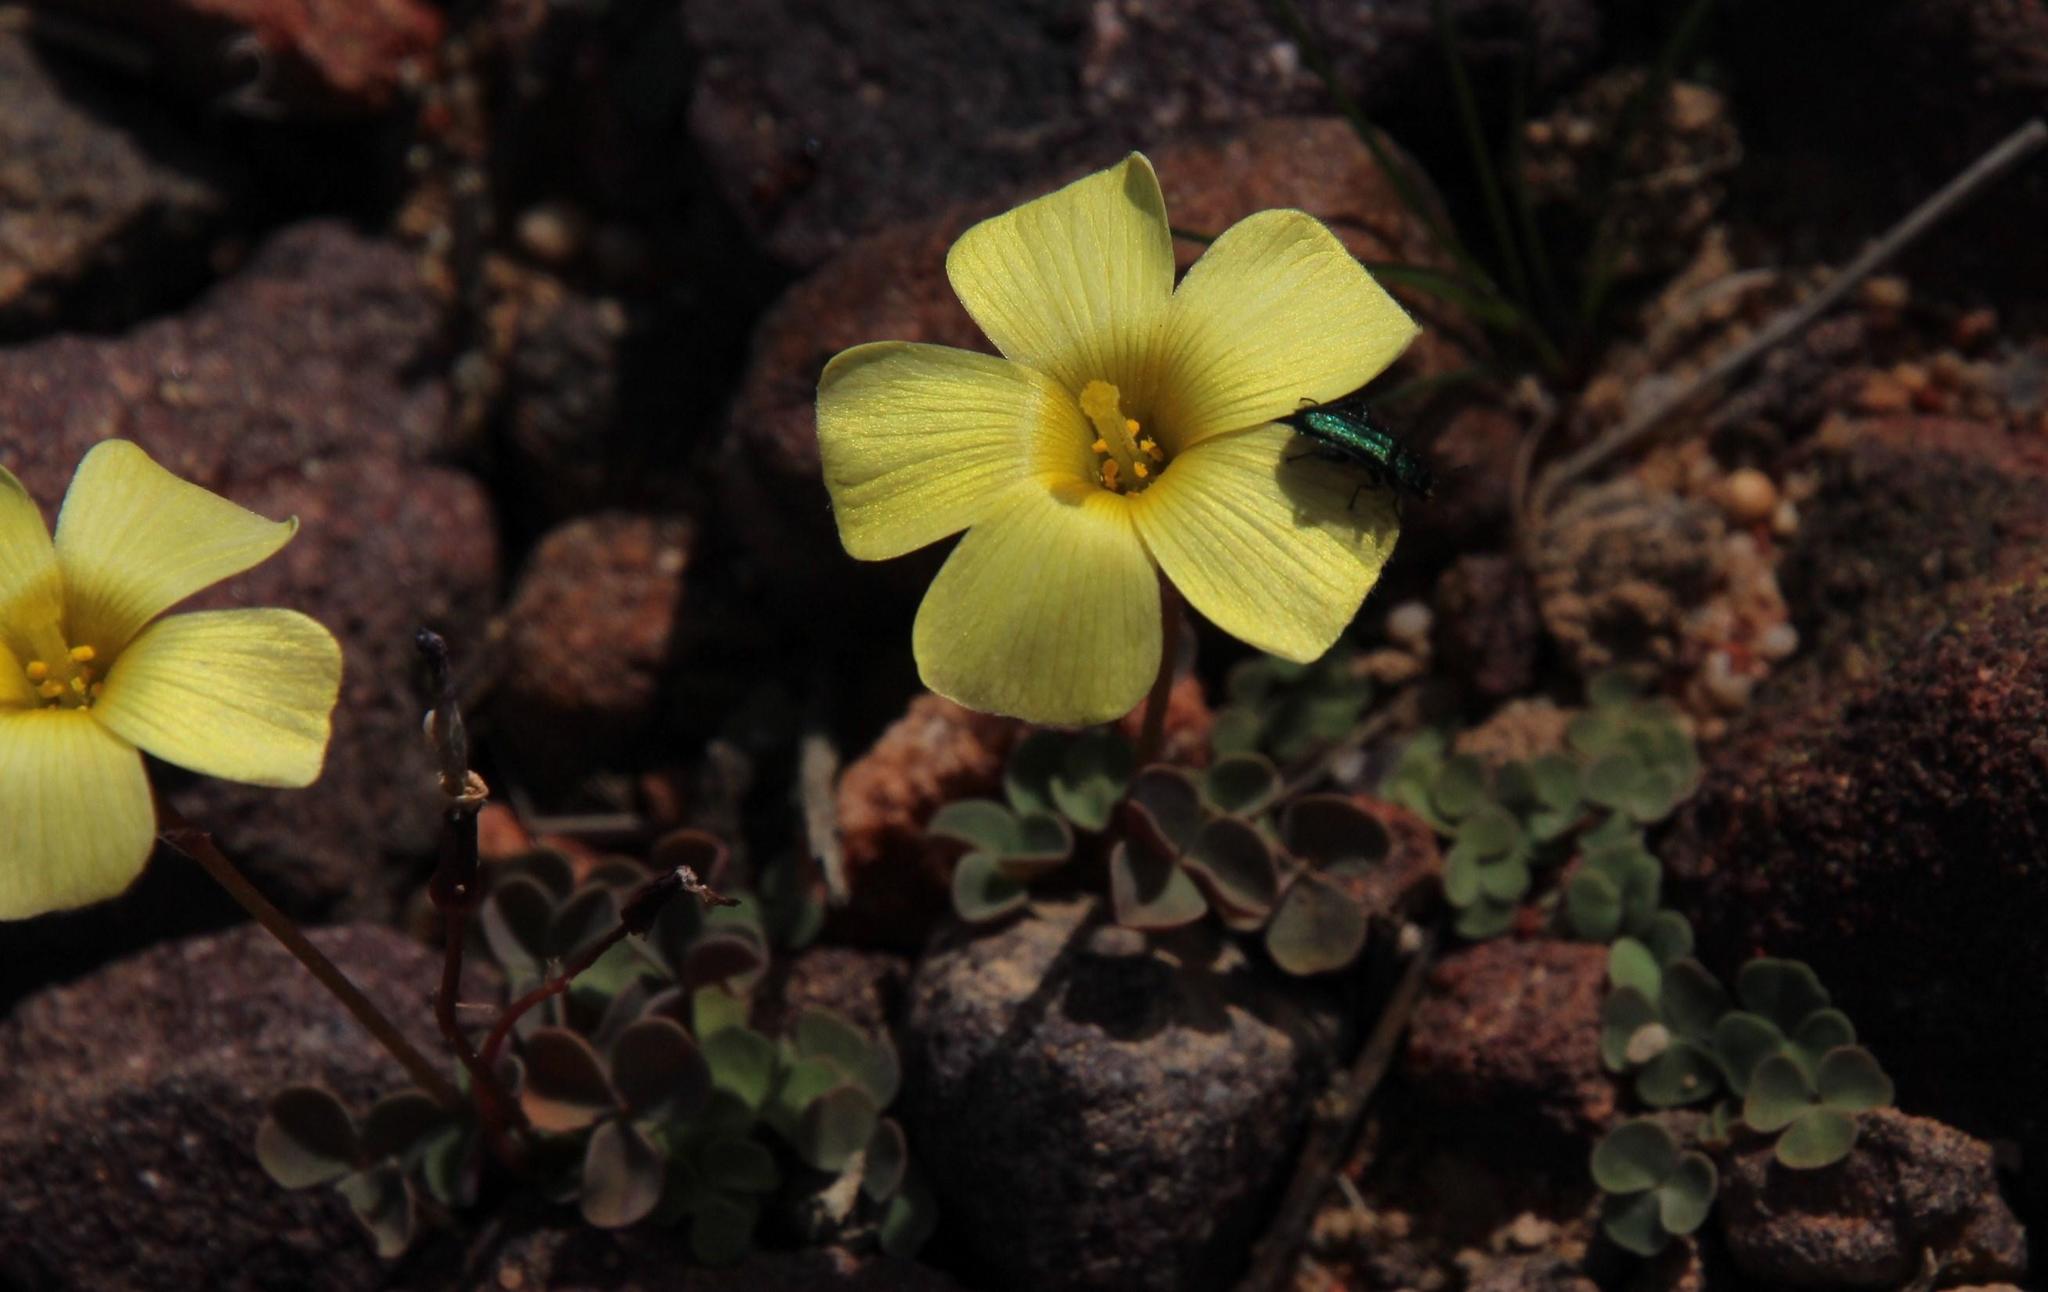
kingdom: Plantae
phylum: Tracheophyta
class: Magnoliopsida
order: Oxalidales
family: Oxalidaceae
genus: Oxalis
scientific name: Oxalis obtusa
